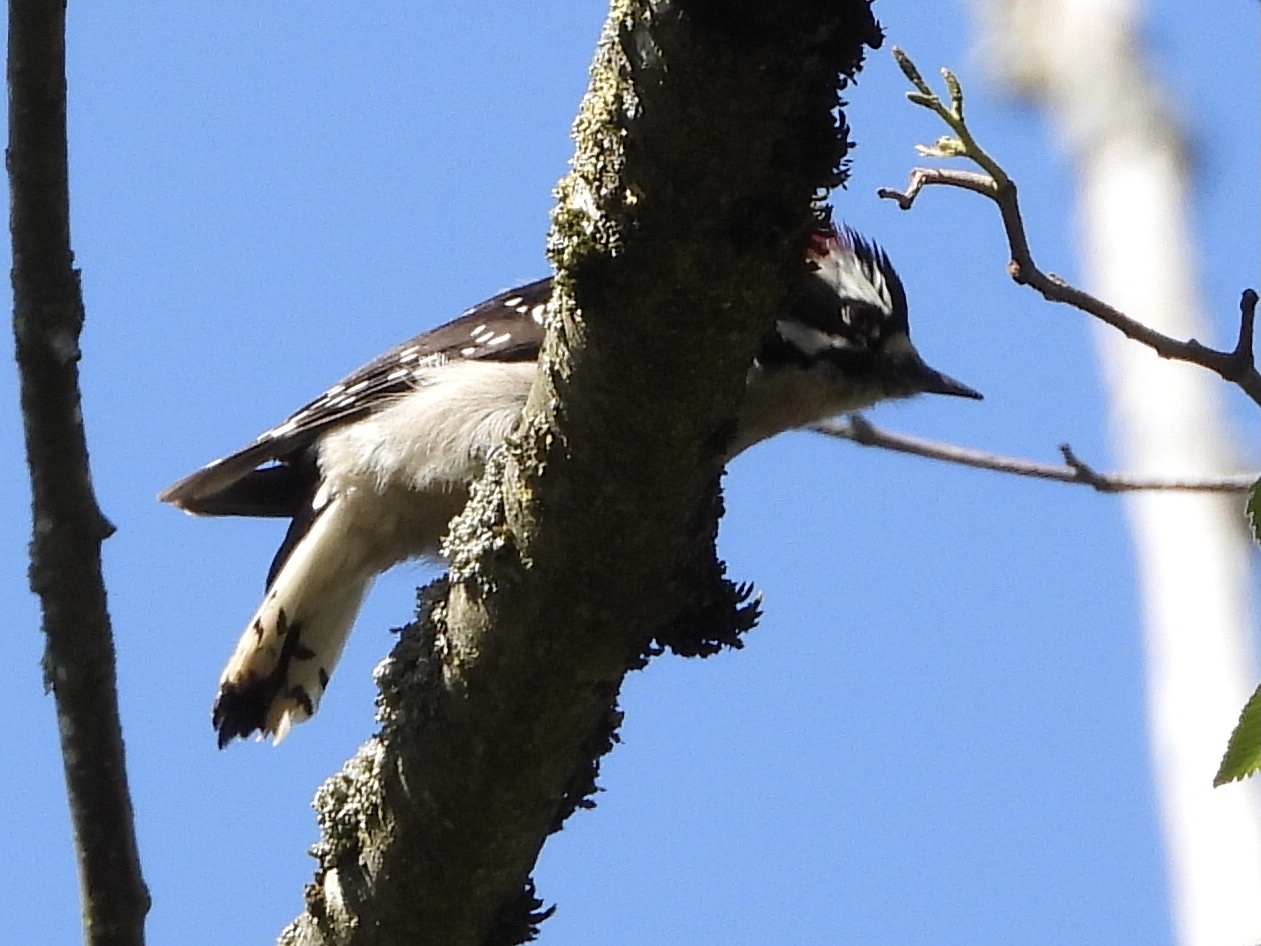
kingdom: Animalia
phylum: Chordata
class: Aves
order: Piciformes
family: Picidae
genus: Dryobates
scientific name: Dryobates pubescens
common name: Downy woodpecker
